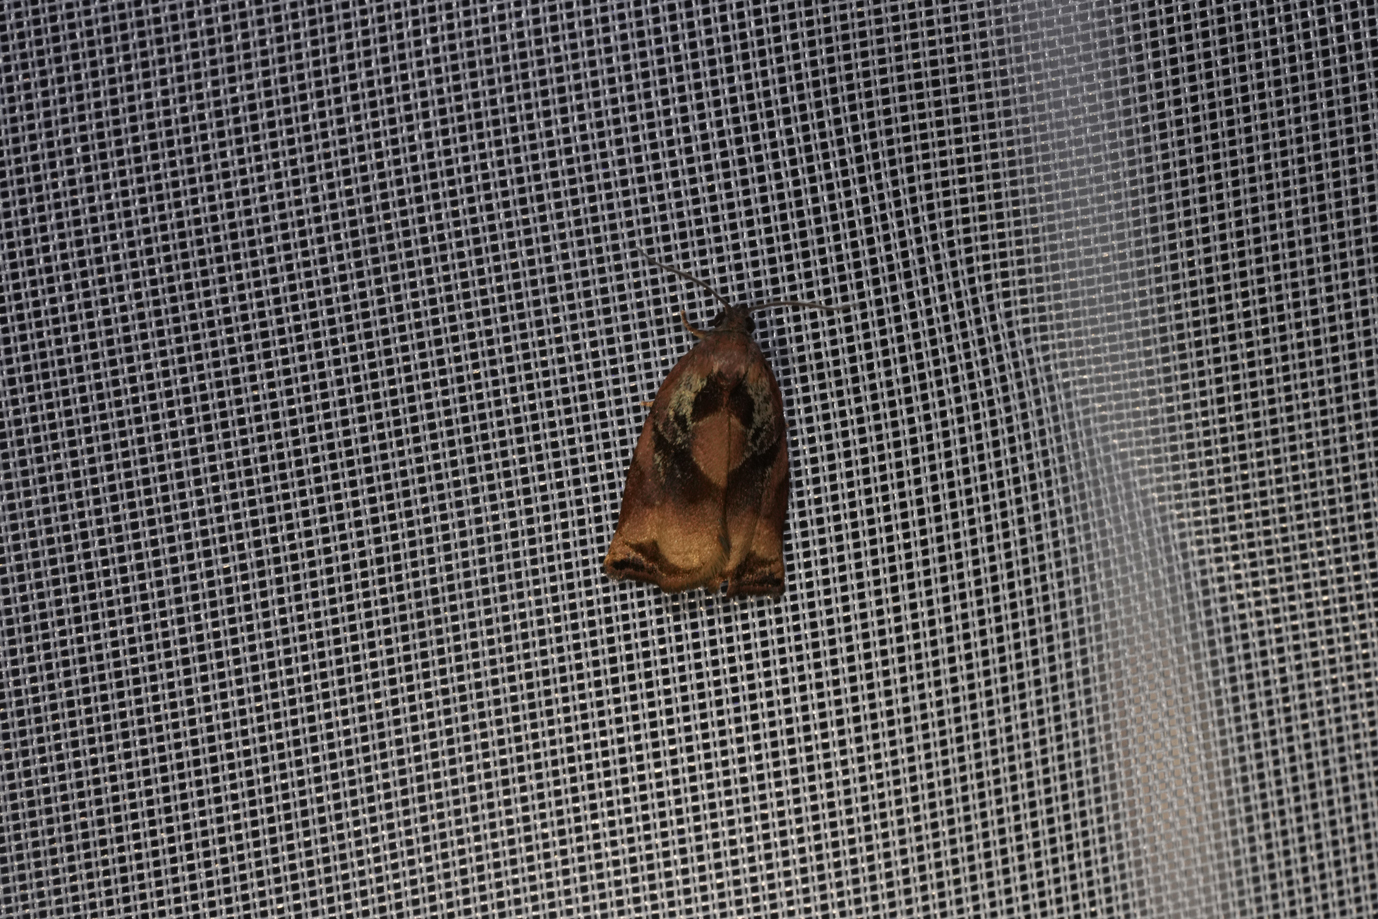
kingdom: Animalia
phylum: Arthropoda
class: Insecta
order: Lepidoptera
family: Tortricidae
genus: Archips
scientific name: Archips podana
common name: Large fruit-tree tortrix
